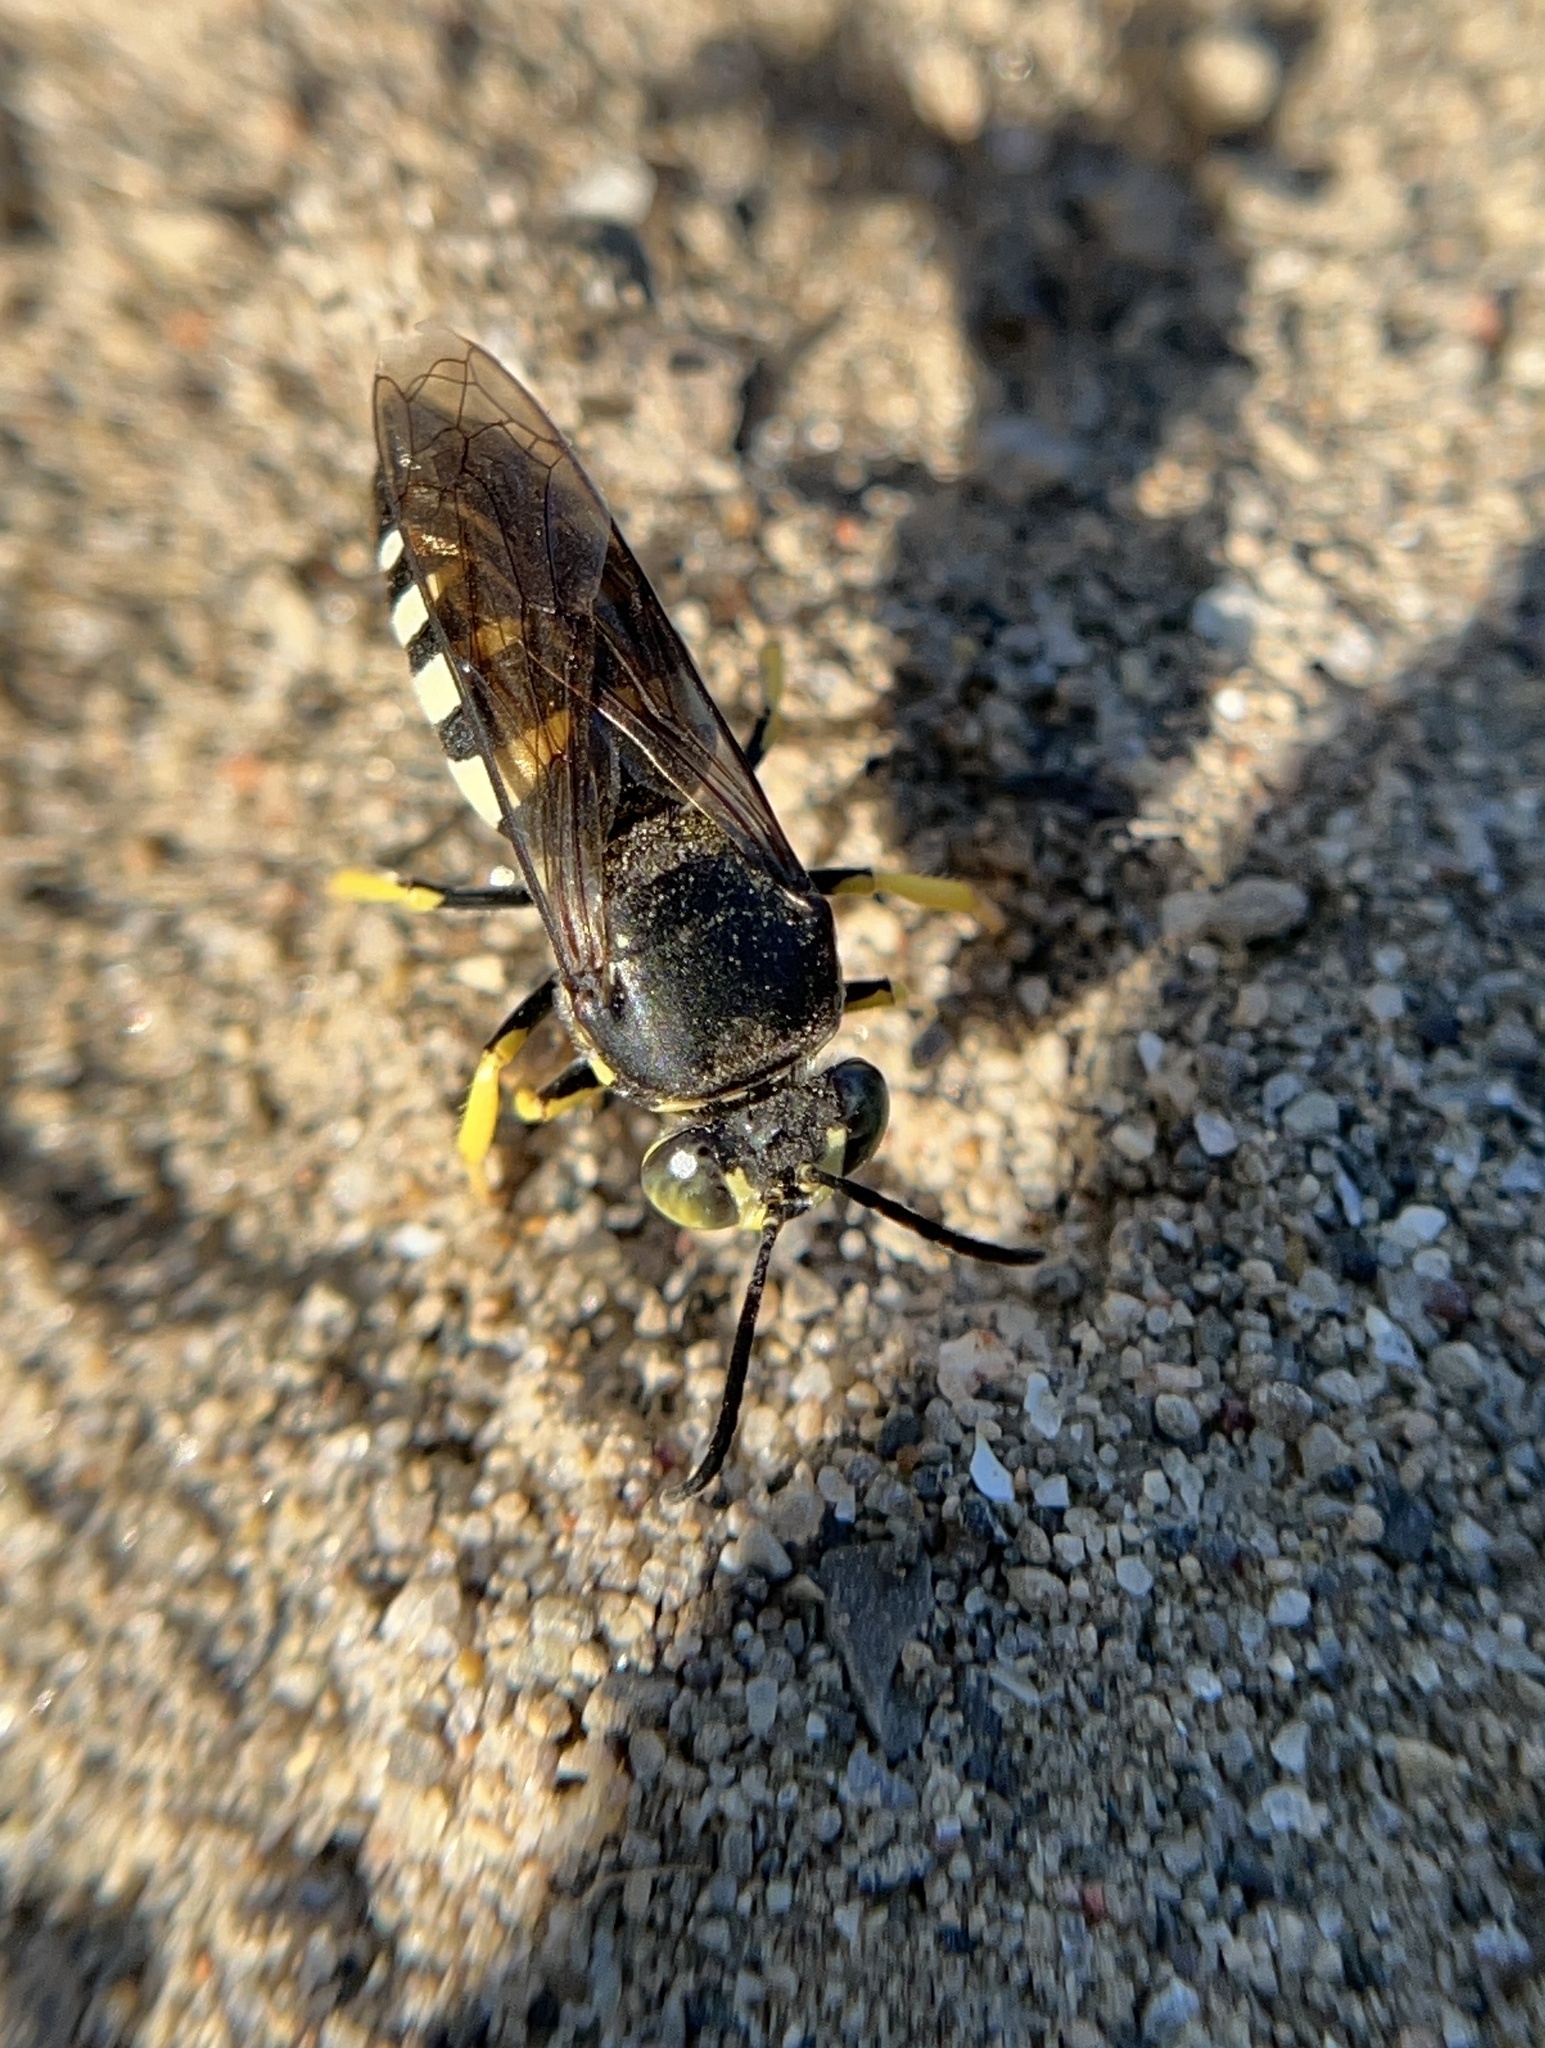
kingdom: Animalia
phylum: Arthropoda
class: Insecta
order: Hymenoptera
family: Crabronidae
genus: Bicyrtes
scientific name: Bicyrtes quadrifasciatus
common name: Four-banded stink bug hunter wasp
